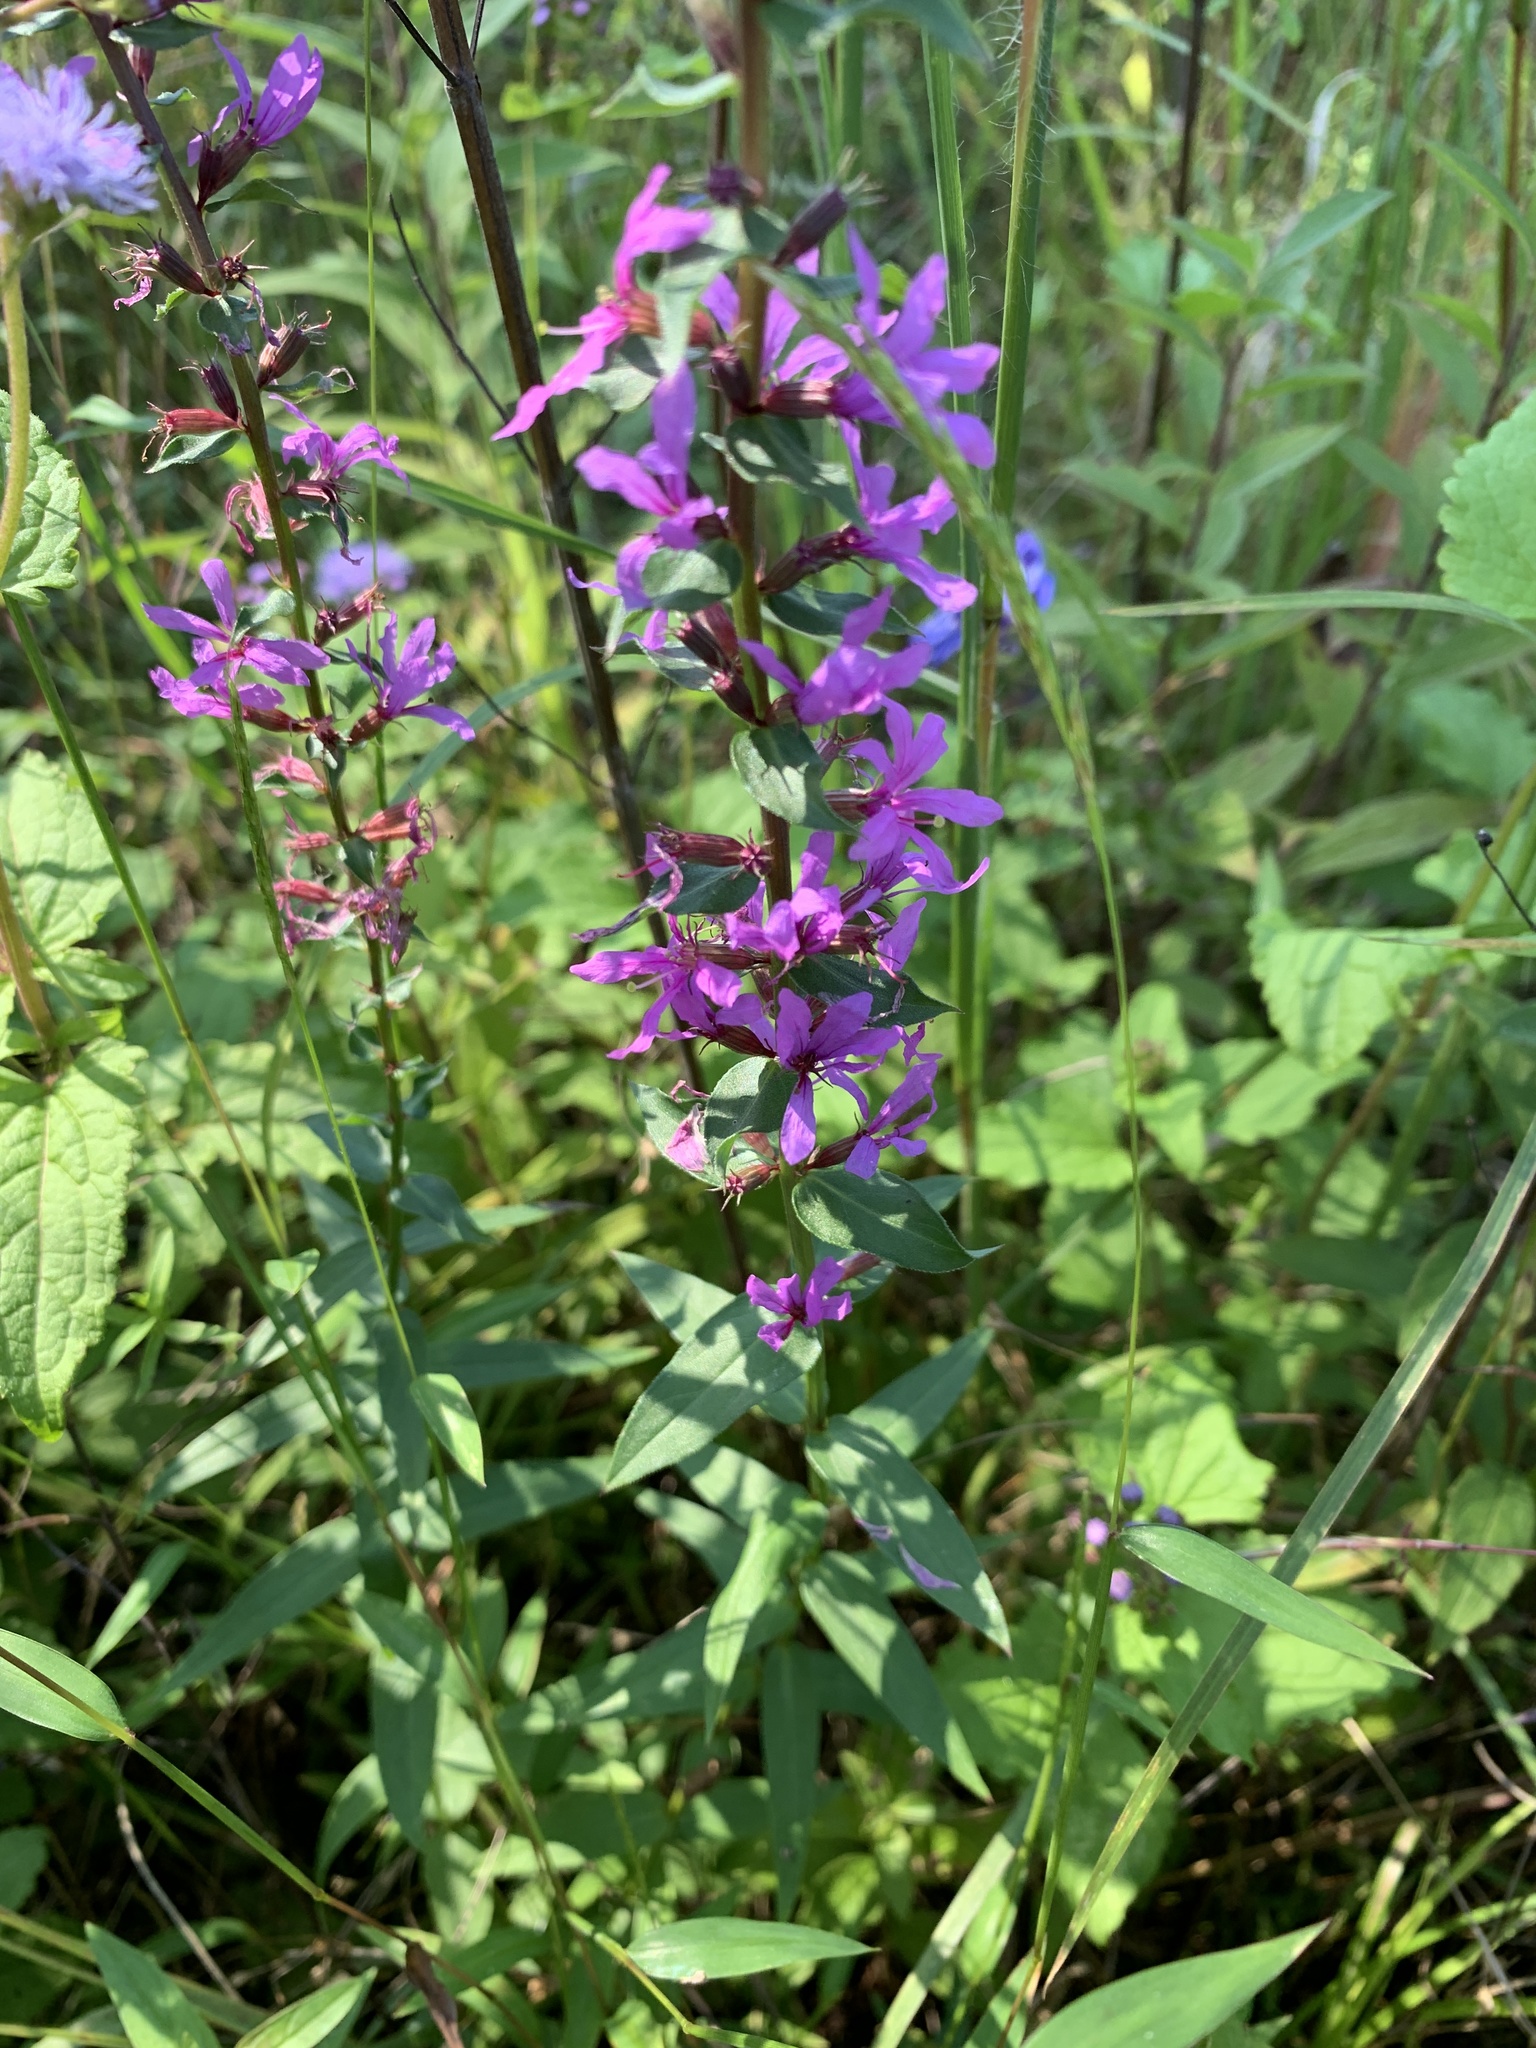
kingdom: Plantae
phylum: Tracheophyta
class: Magnoliopsida
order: Myrtales
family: Lythraceae
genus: Lythrum
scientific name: Lythrum salicaria
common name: Purple loosestrife
